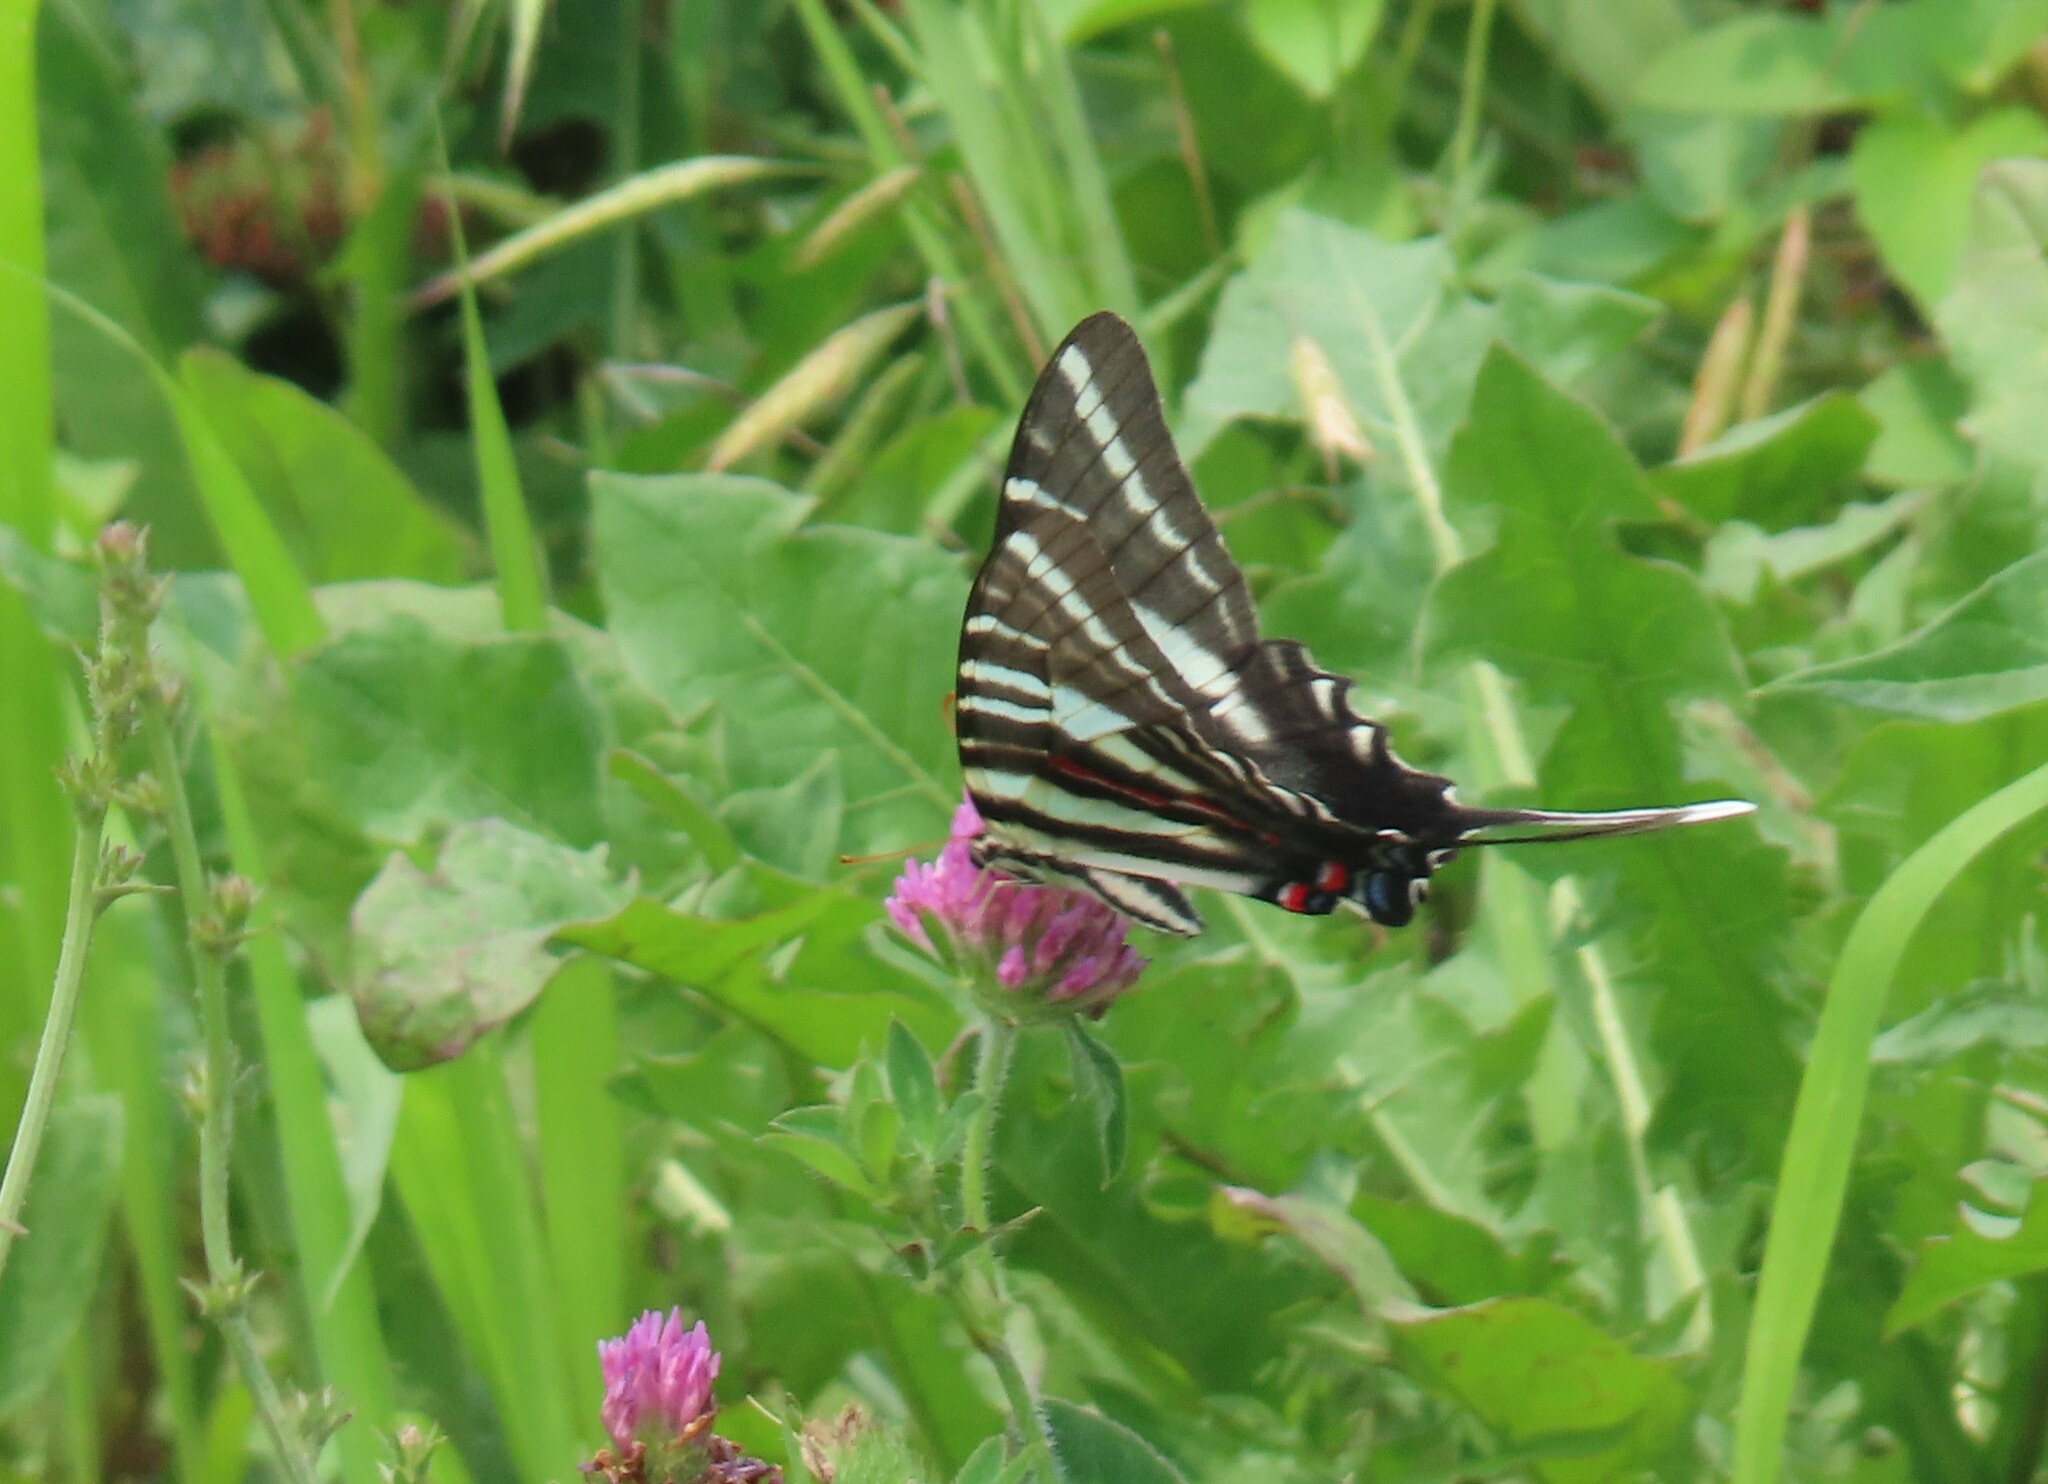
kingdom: Animalia
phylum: Arthropoda
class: Insecta
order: Lepidoptera
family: Papilionidae
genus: Protographium
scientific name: Protographium marcellus
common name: Zebra swallowtail
